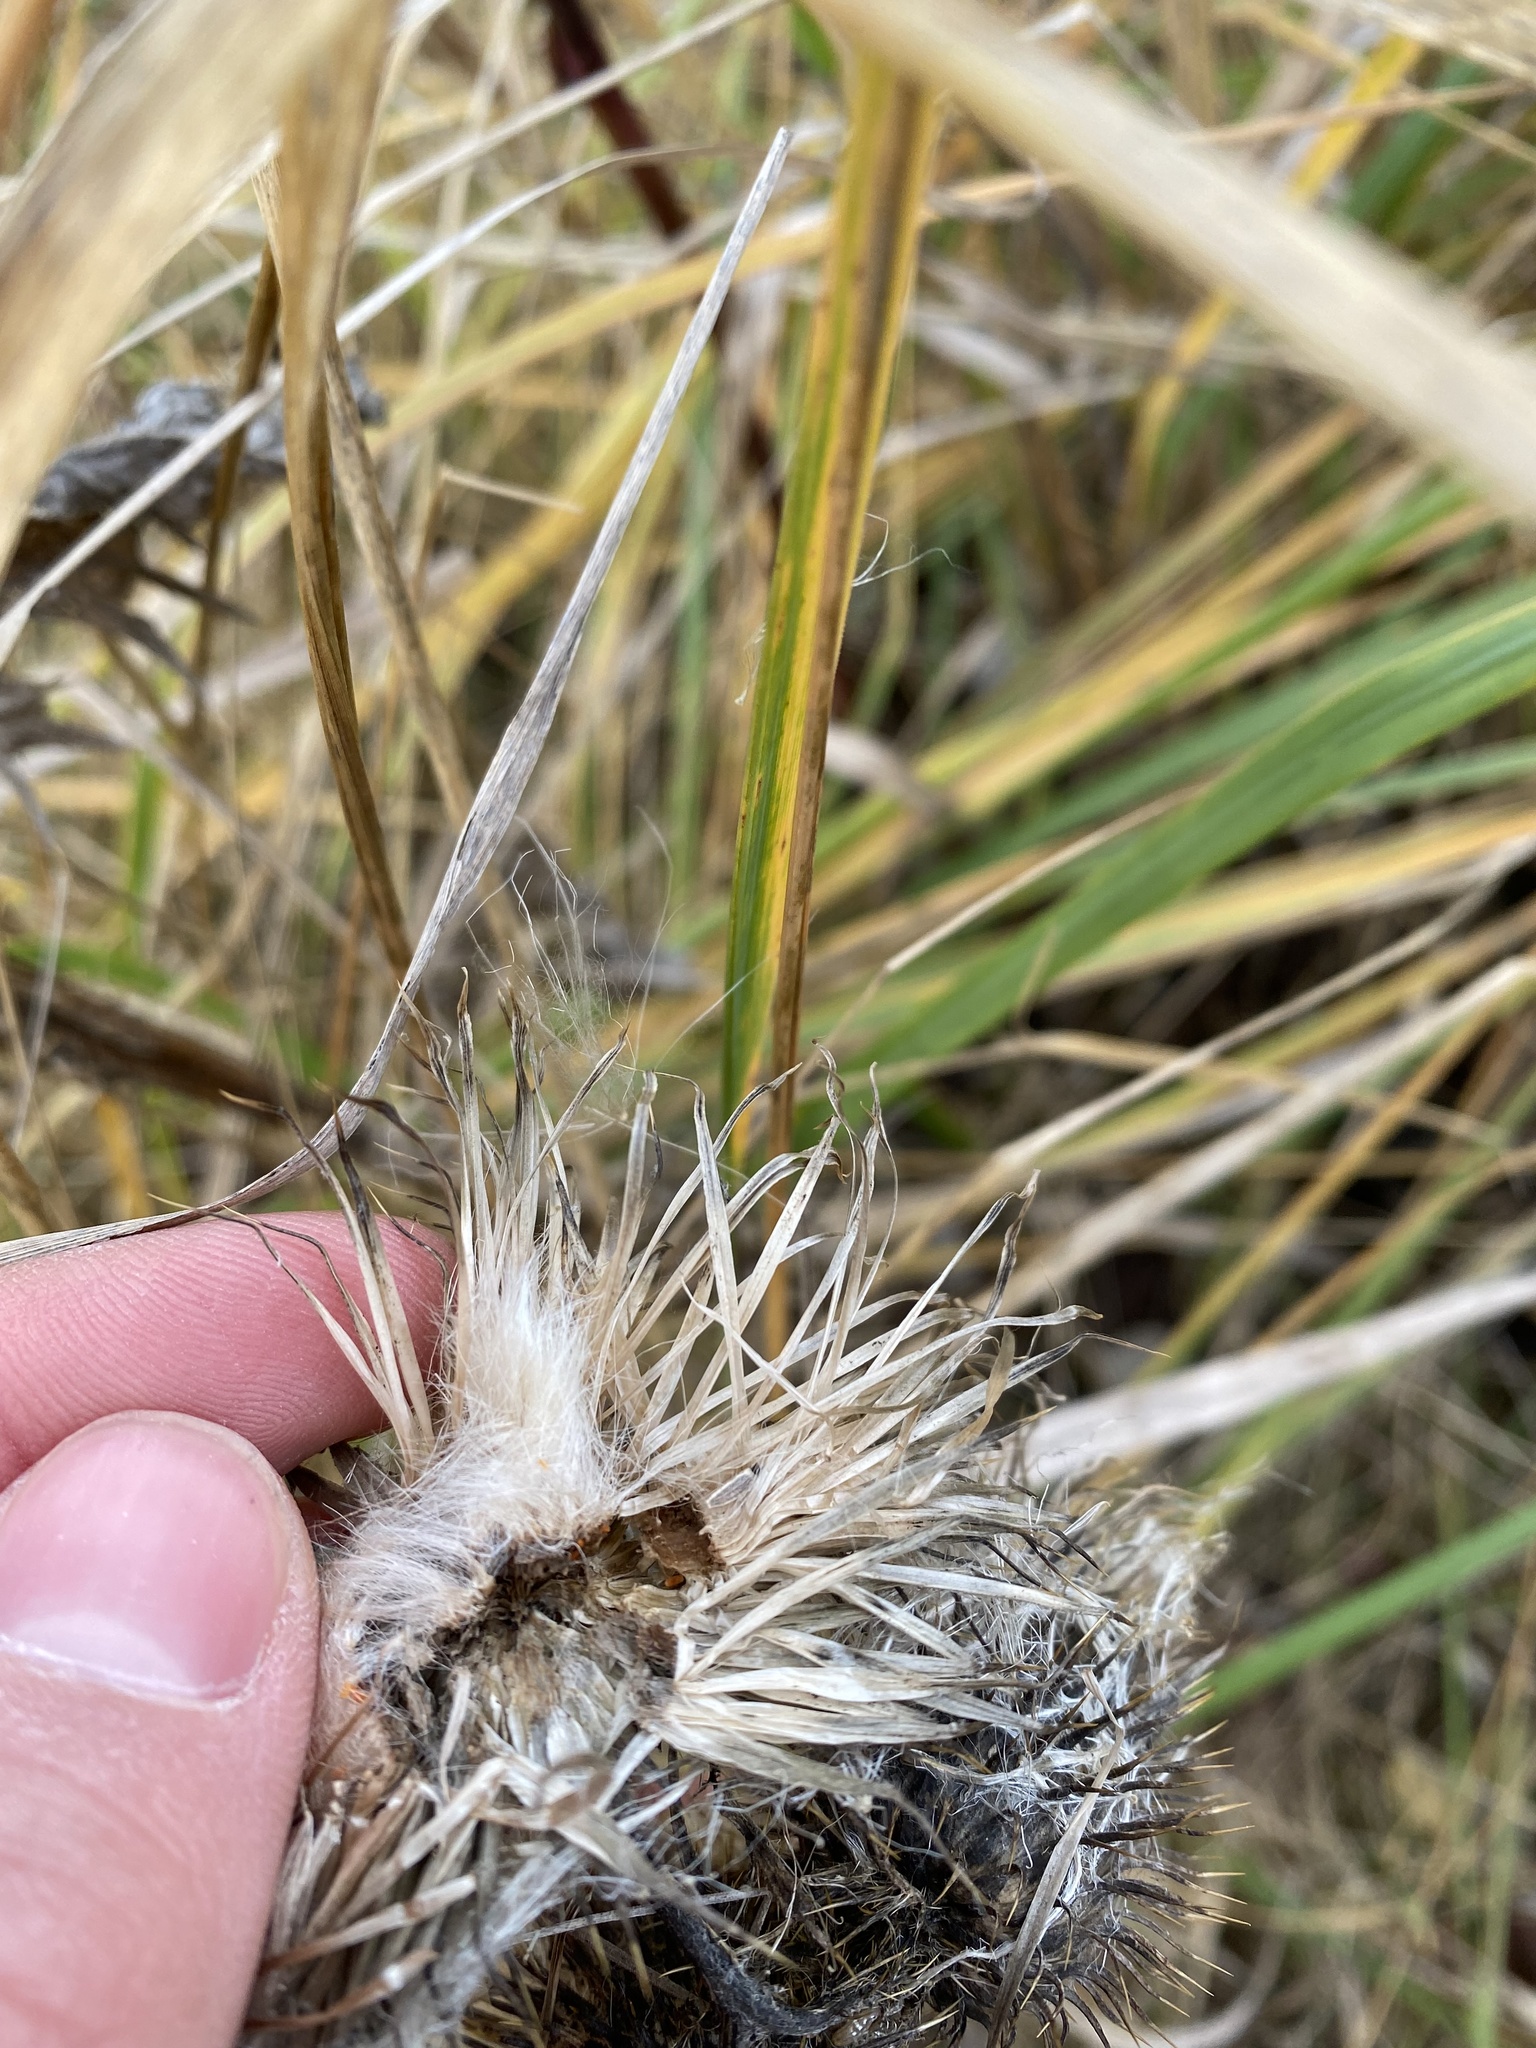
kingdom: Plantae
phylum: Tracheophyta
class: Magnoliopsida
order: Asterales
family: Asteraceae
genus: Cirsium
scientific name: Cirsium vulgare
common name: Bull thistle
